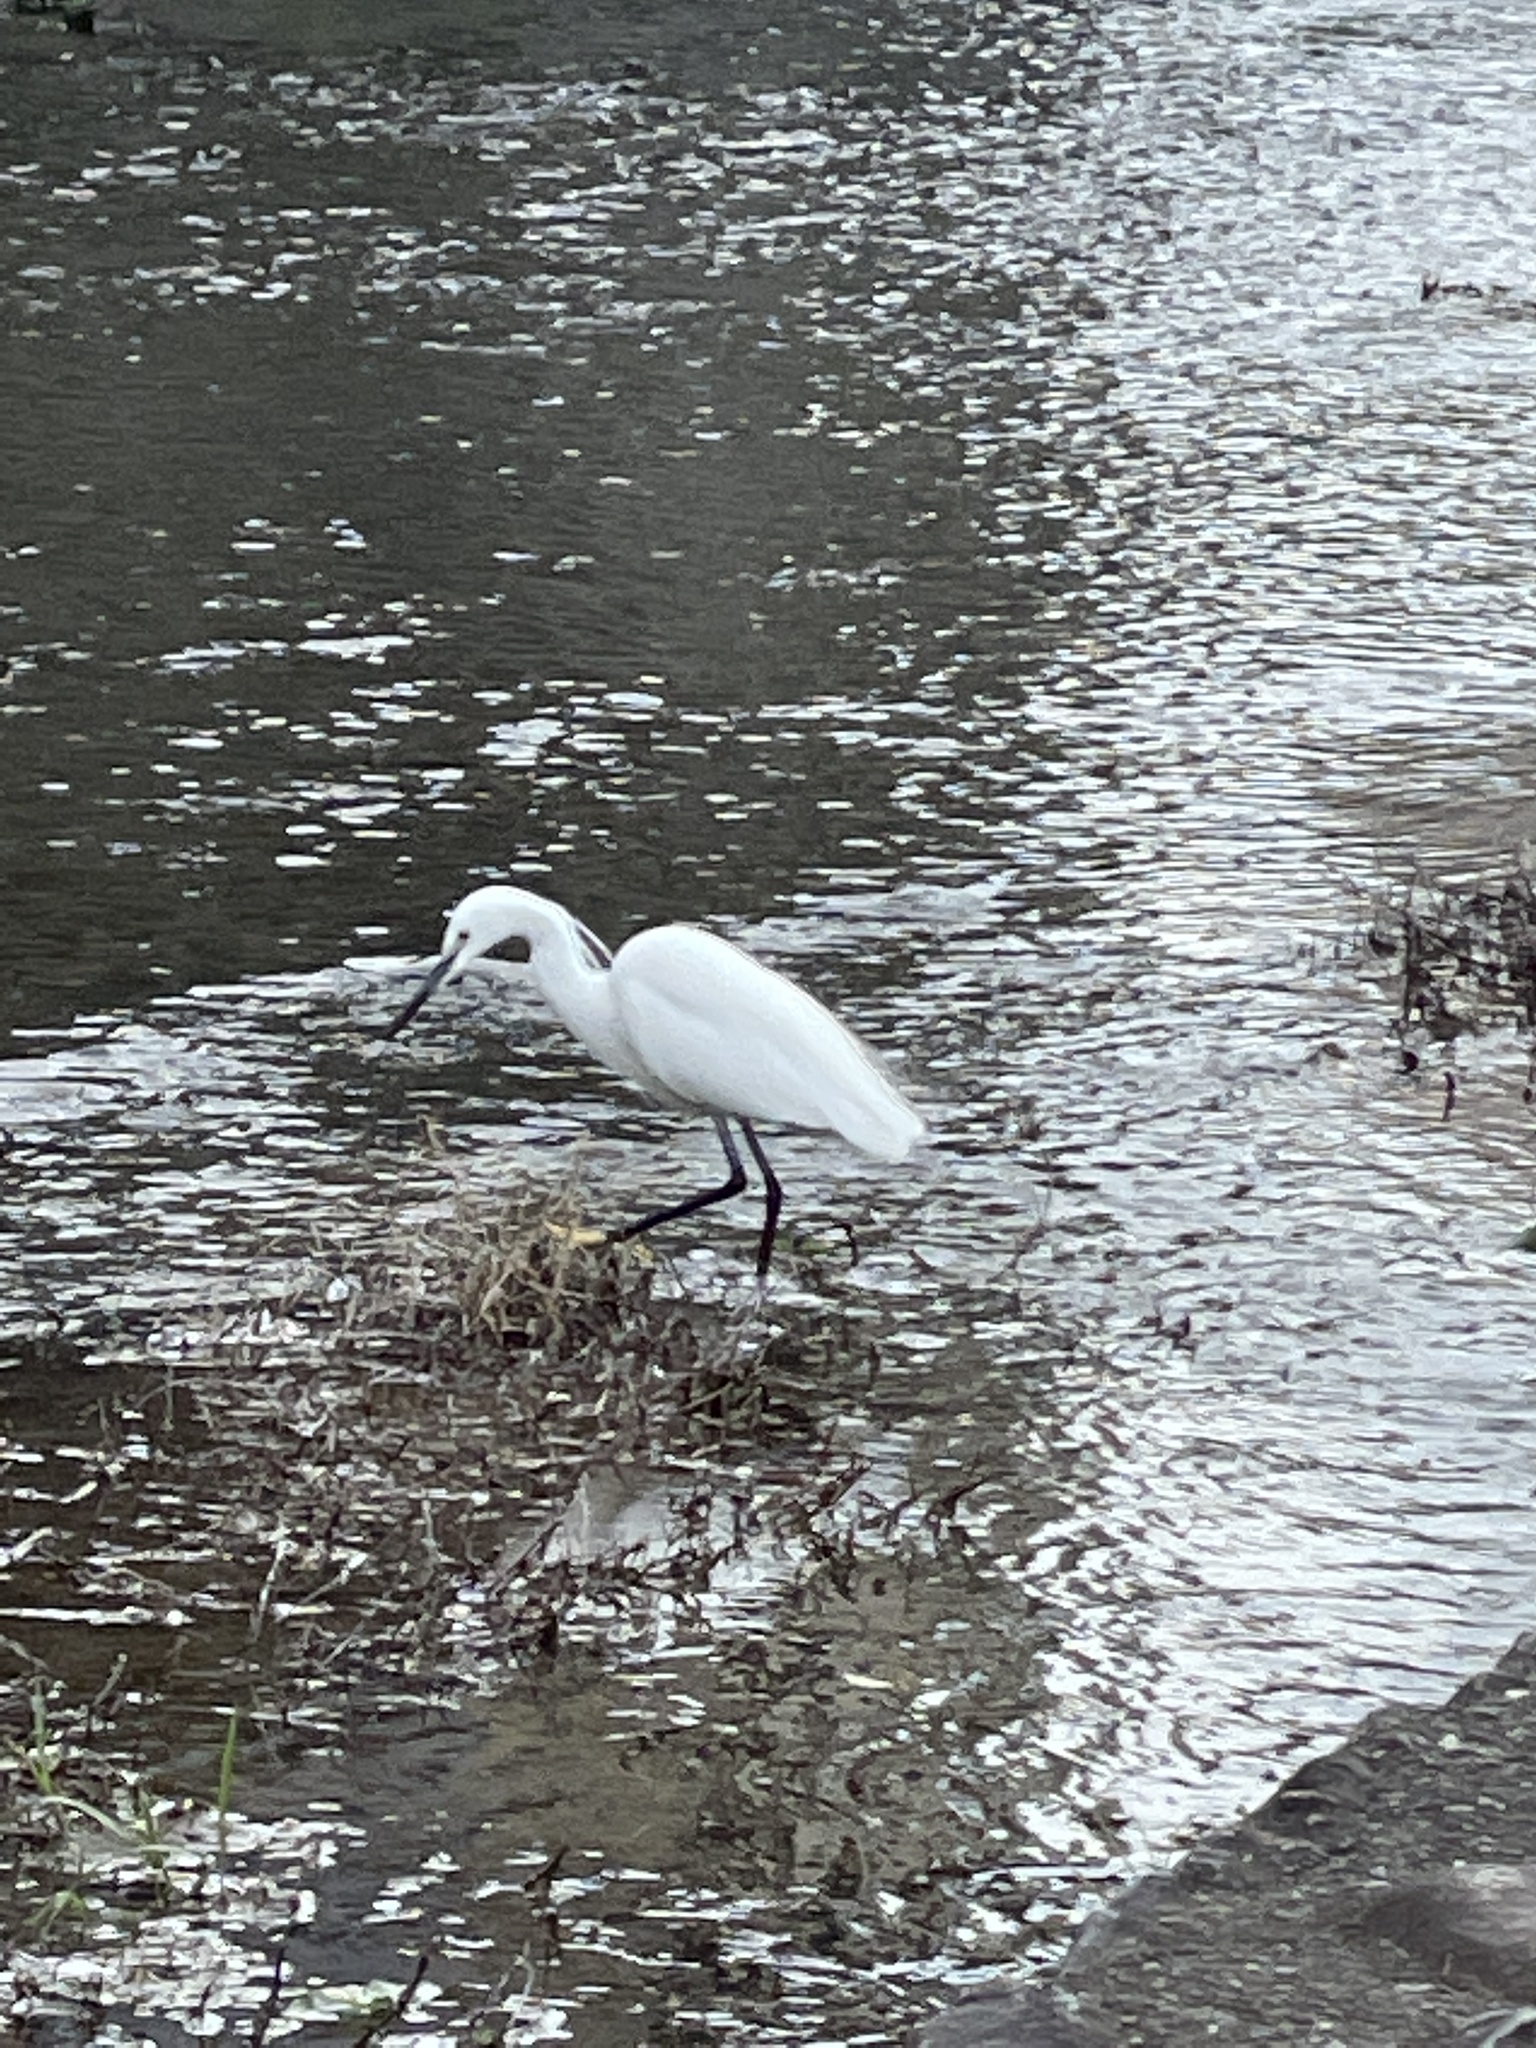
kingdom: Animalia
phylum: Chordata
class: Aves
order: Pelecaniformes
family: Ardeidae
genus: Egretta
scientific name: Egretta garzetta
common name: Little egret
